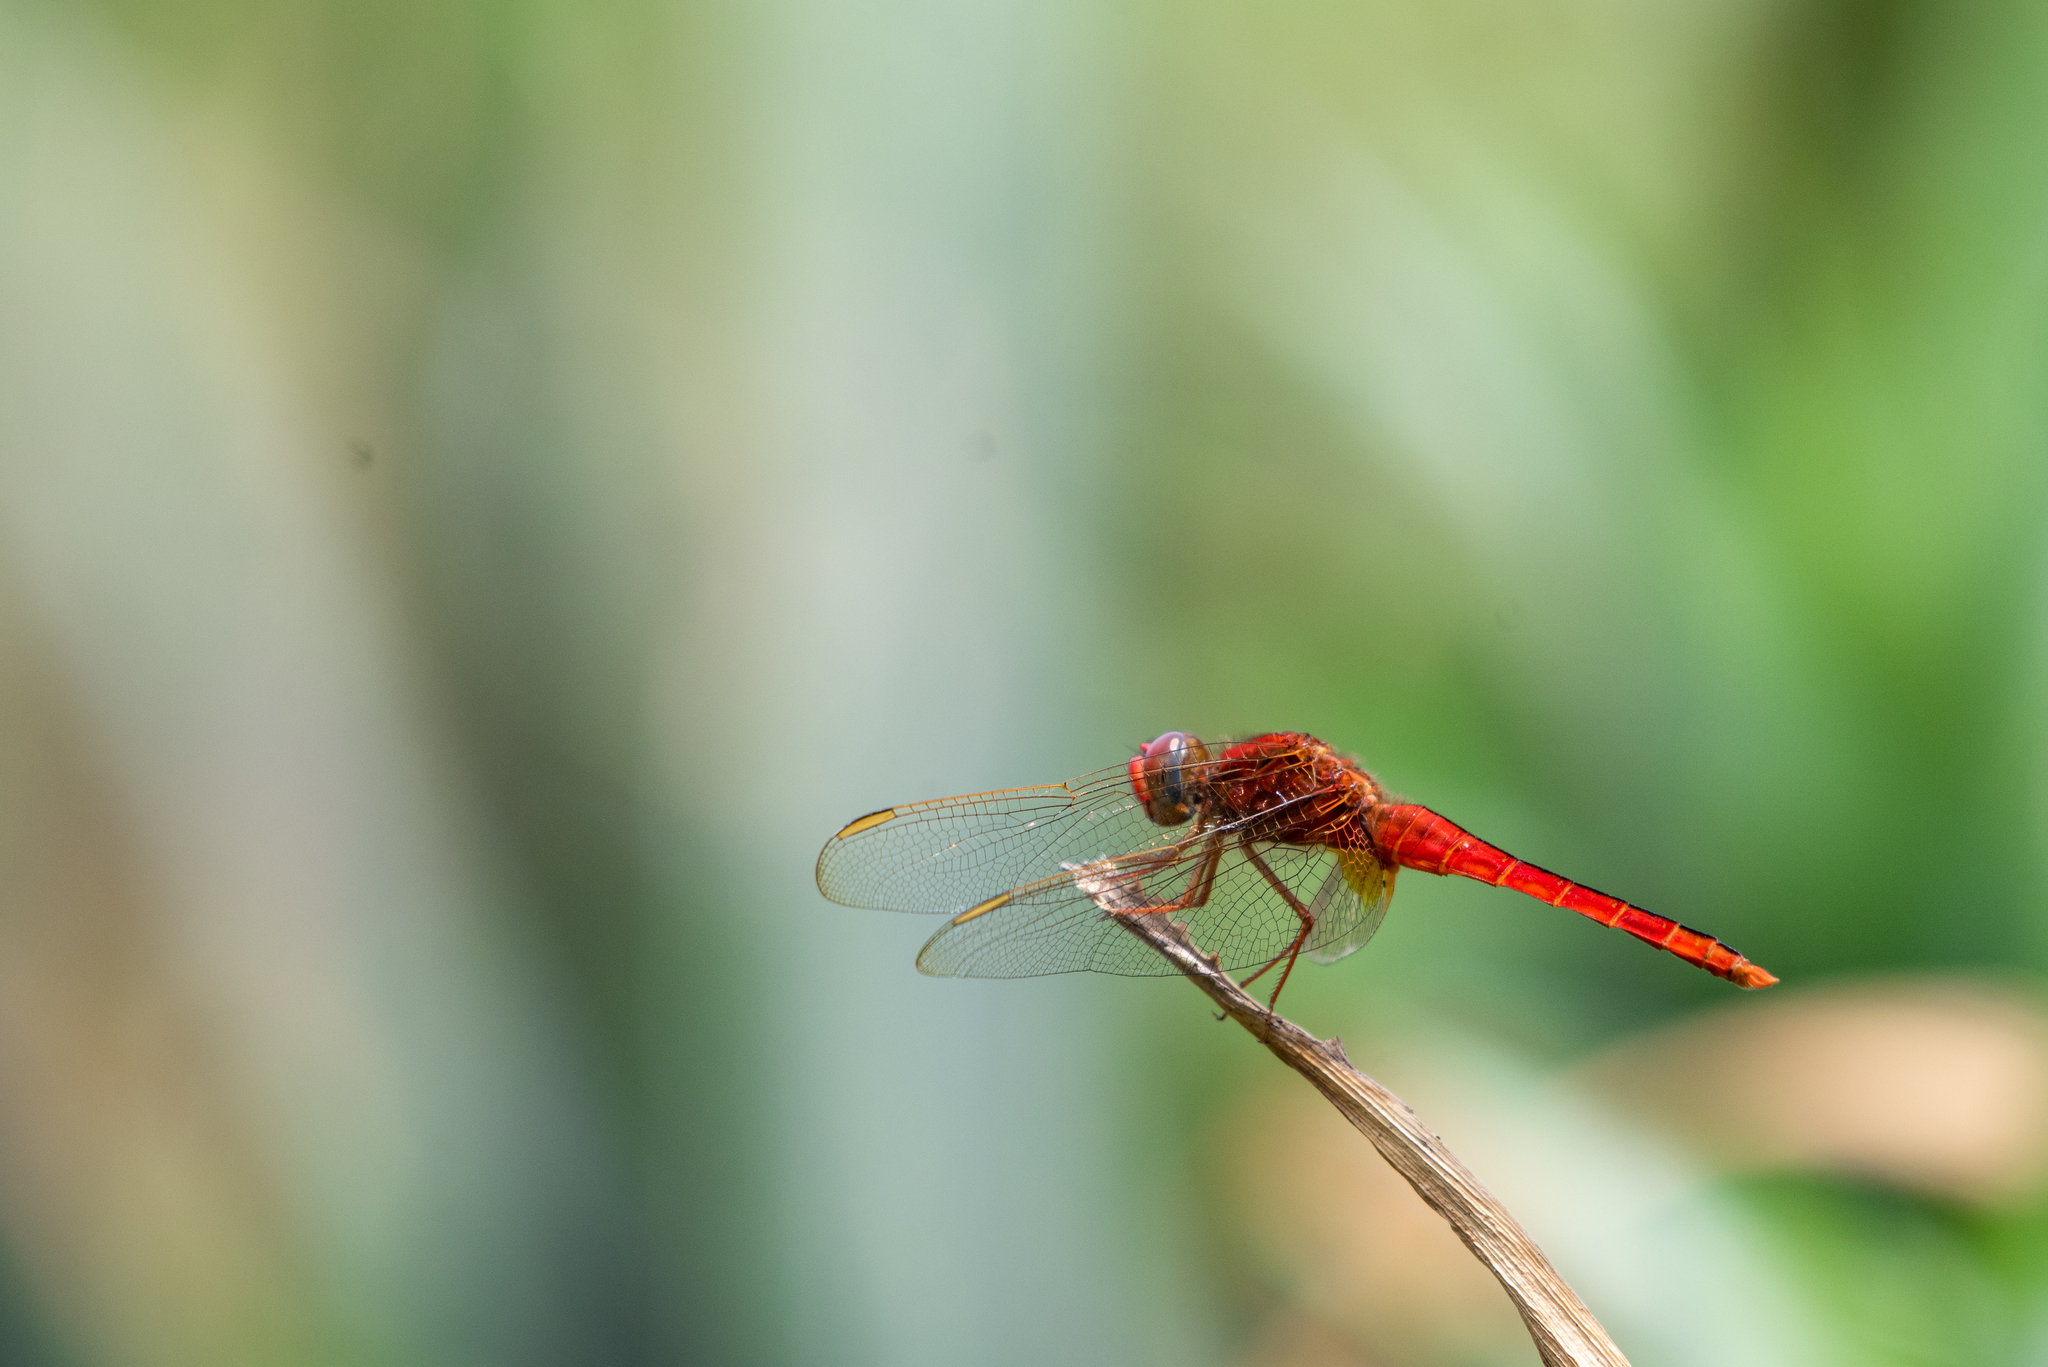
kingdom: Animalia
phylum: Arthropoda
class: Insecta
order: Odonata
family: Libellulidae
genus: Crocothemis
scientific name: Crocothemis servilia
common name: Scarlet skimmer
